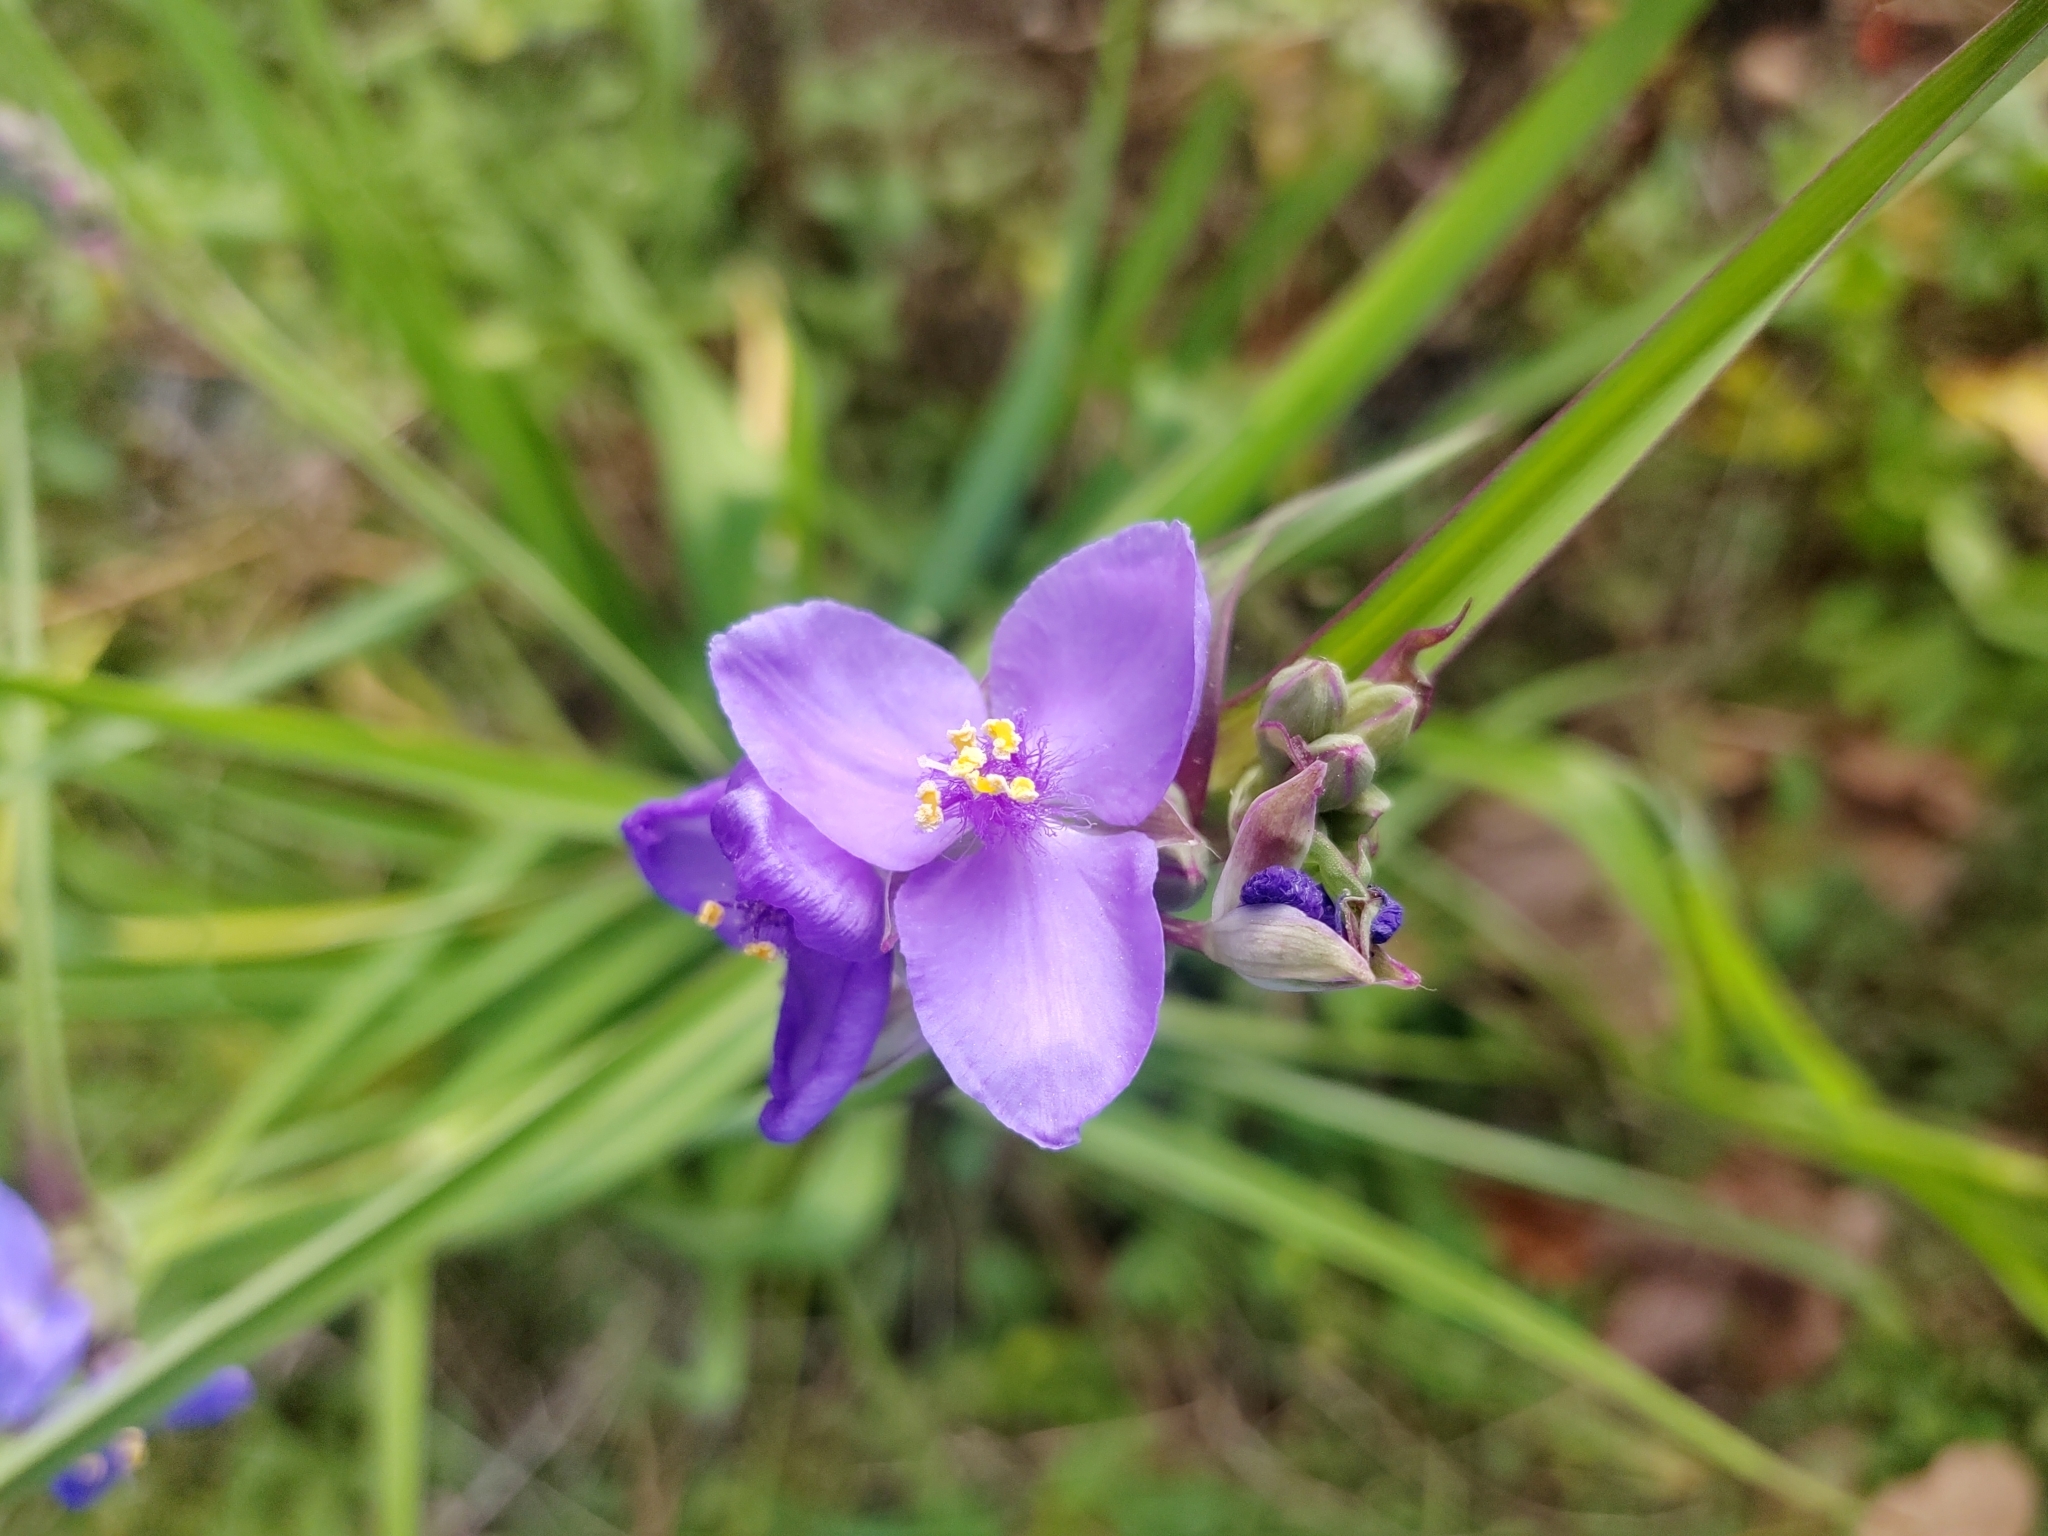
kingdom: Plantae
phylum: Tracheophyta
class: Liliopsida
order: Commelinales
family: Commelinaceae
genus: Tradescantia
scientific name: Tradescantia ohiensis
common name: Ohio spiderwort
